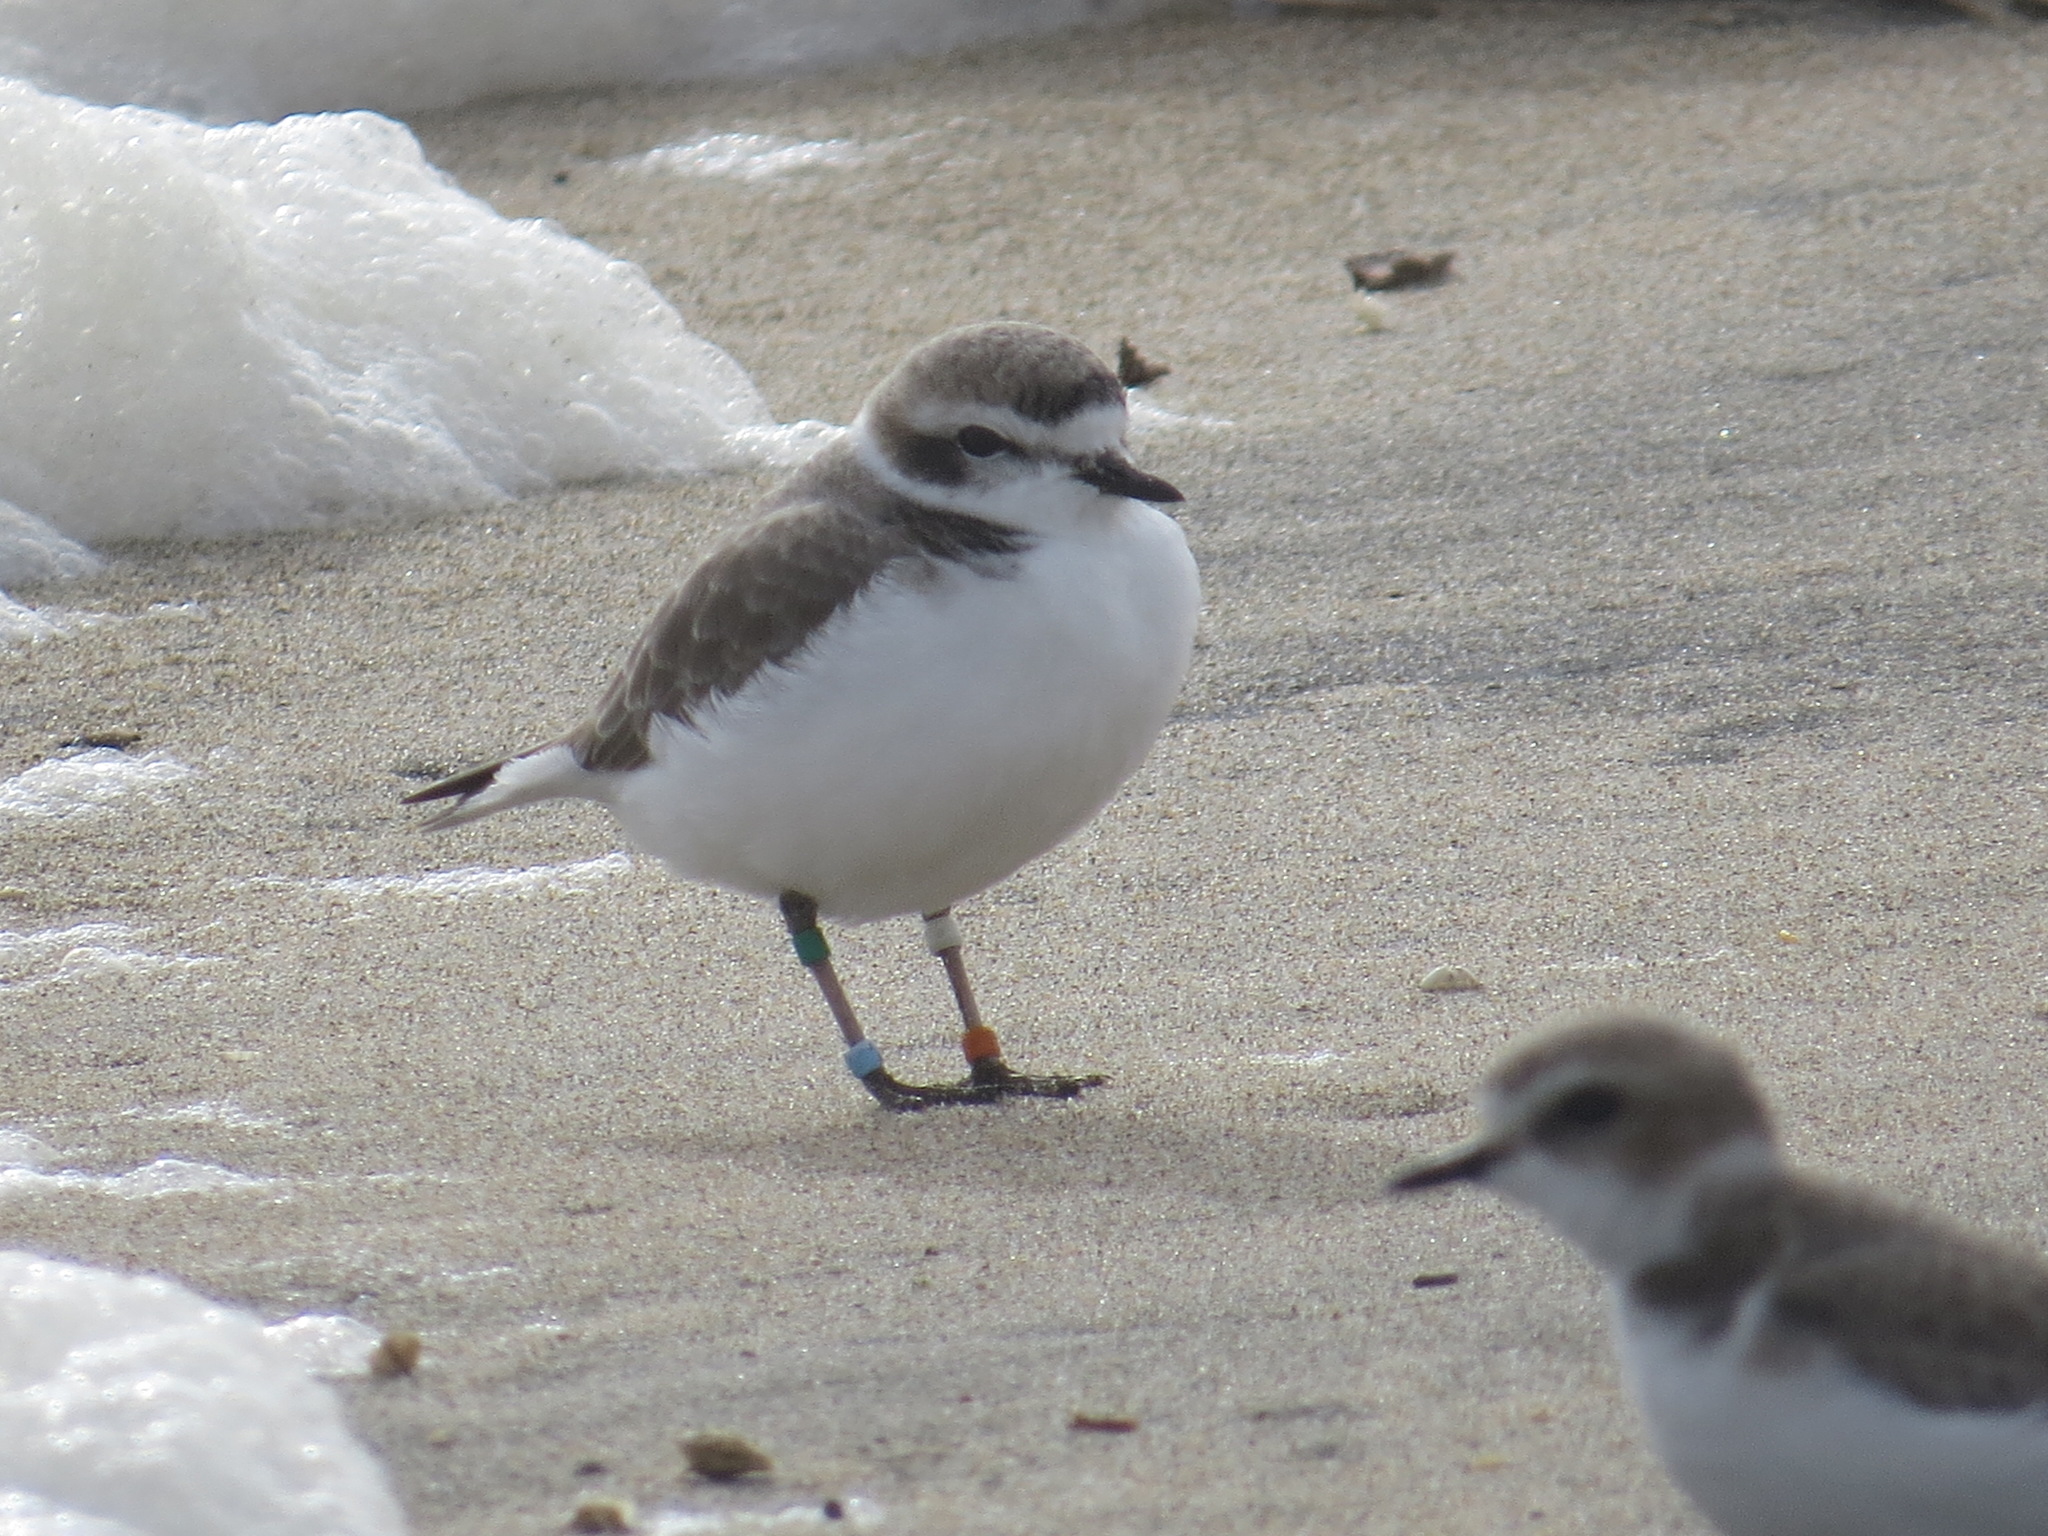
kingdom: Animalia
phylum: Chordata
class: Aves
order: Charadriiformes
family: Charadriidae
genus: Anarhynchus
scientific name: Anarhynchus
